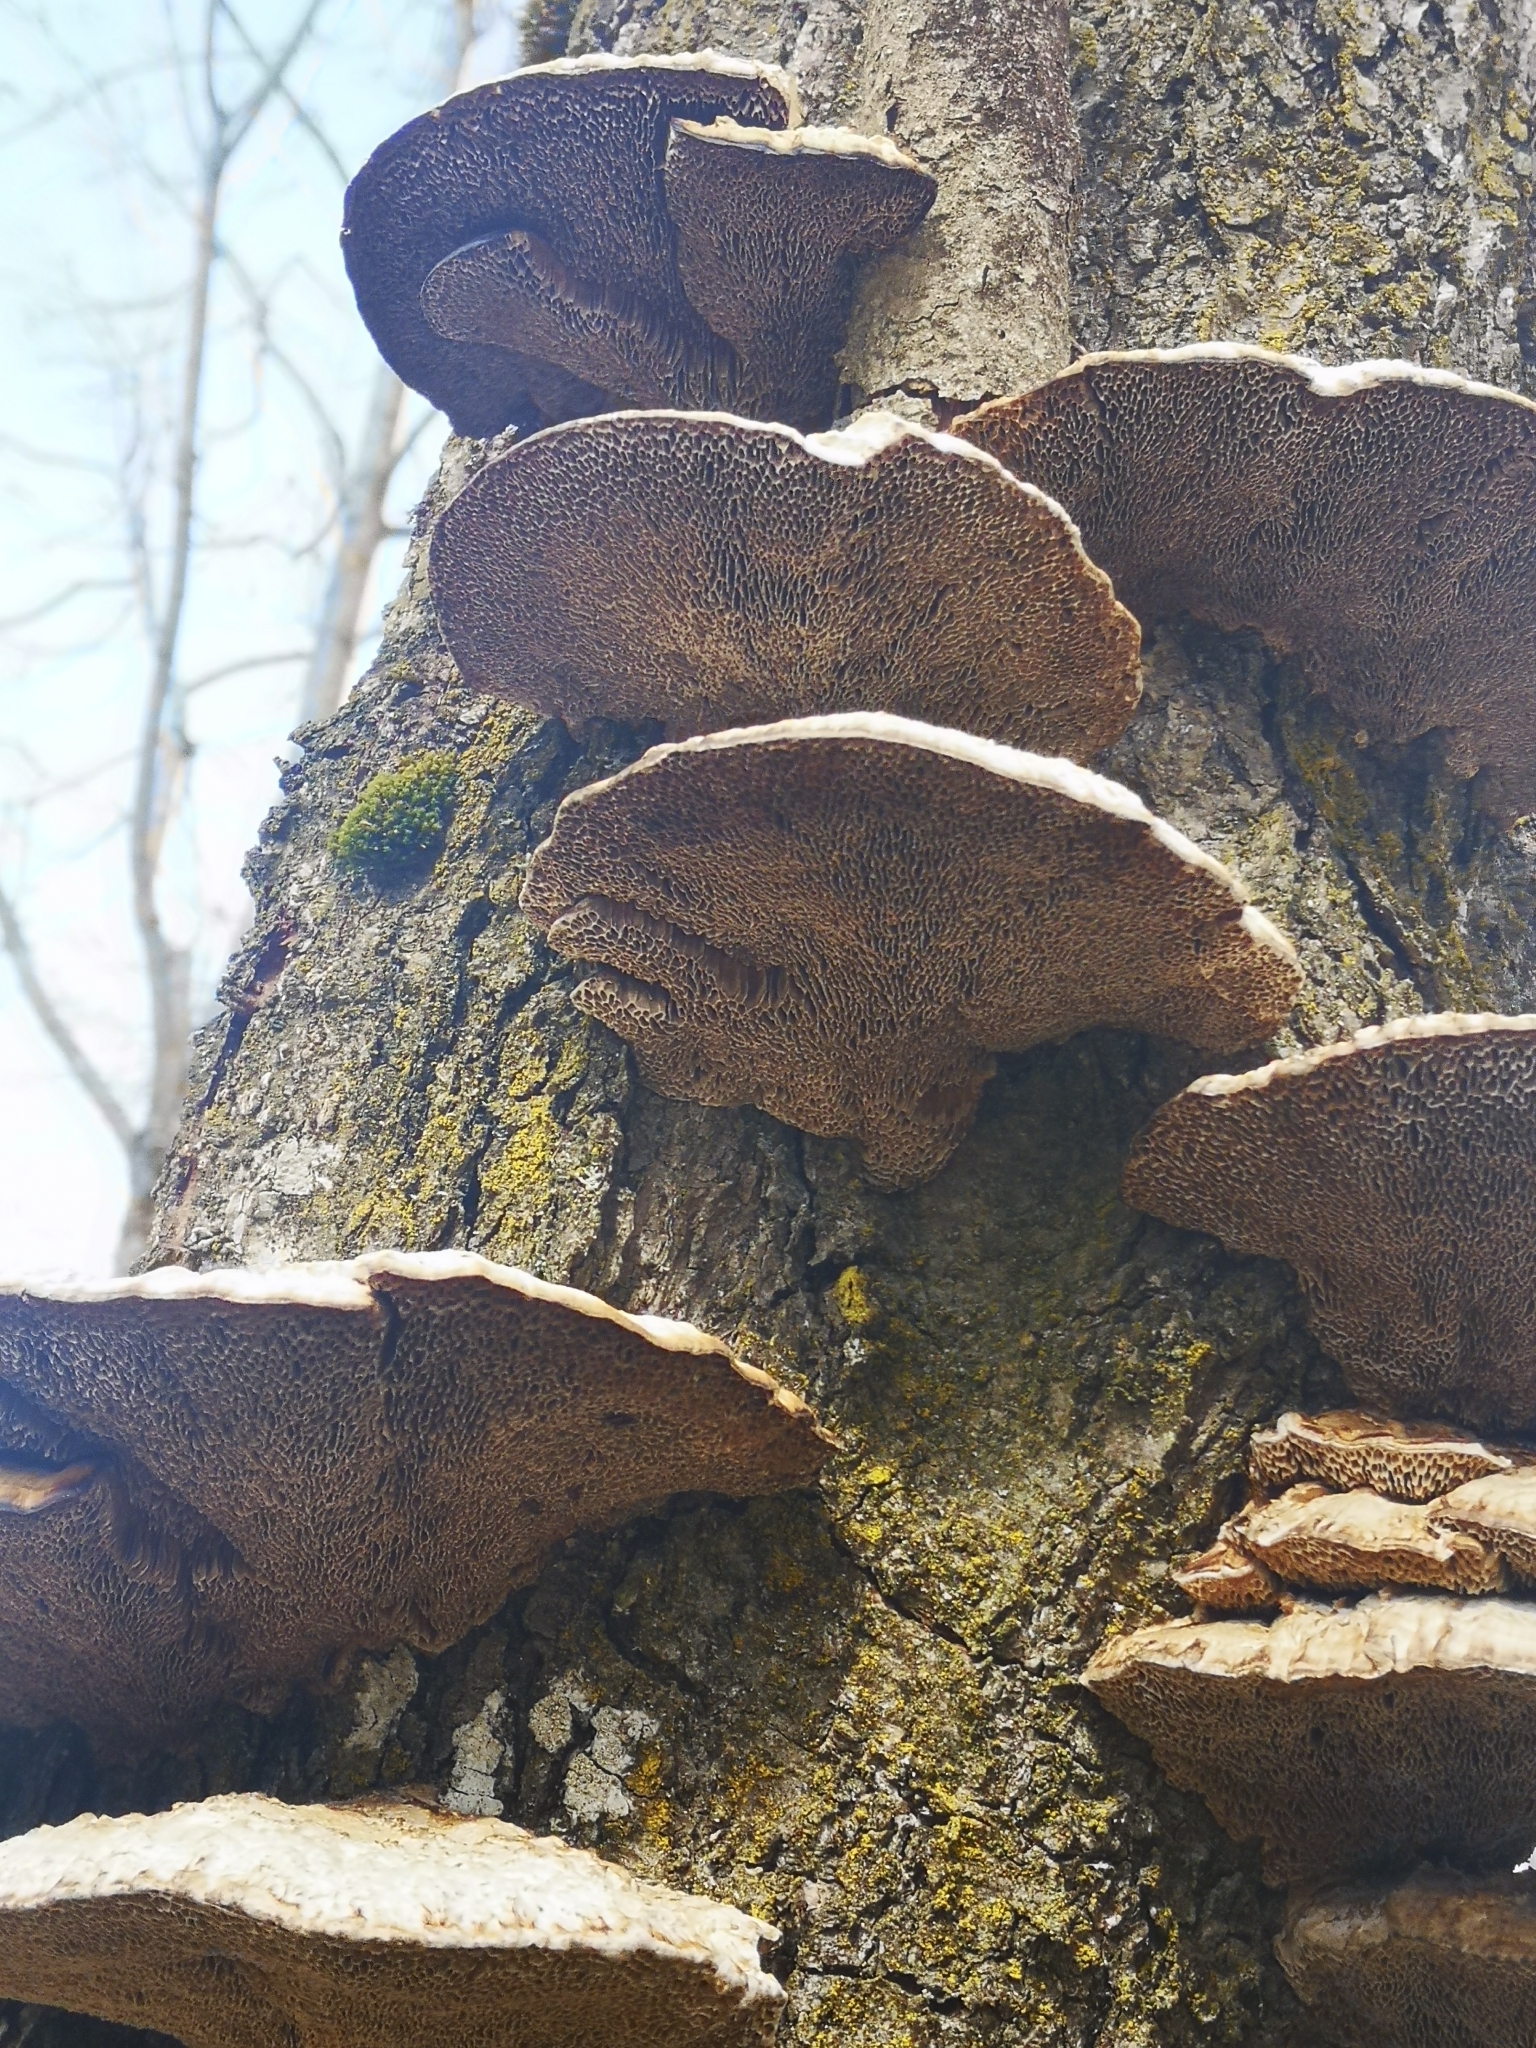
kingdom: Fungi
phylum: Basidiomycota
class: Agaricomycetes
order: Polyporales
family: Polyporaceae
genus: Daedaleopsis
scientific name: Daedaleopsis confragosa
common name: Blushing bracket
